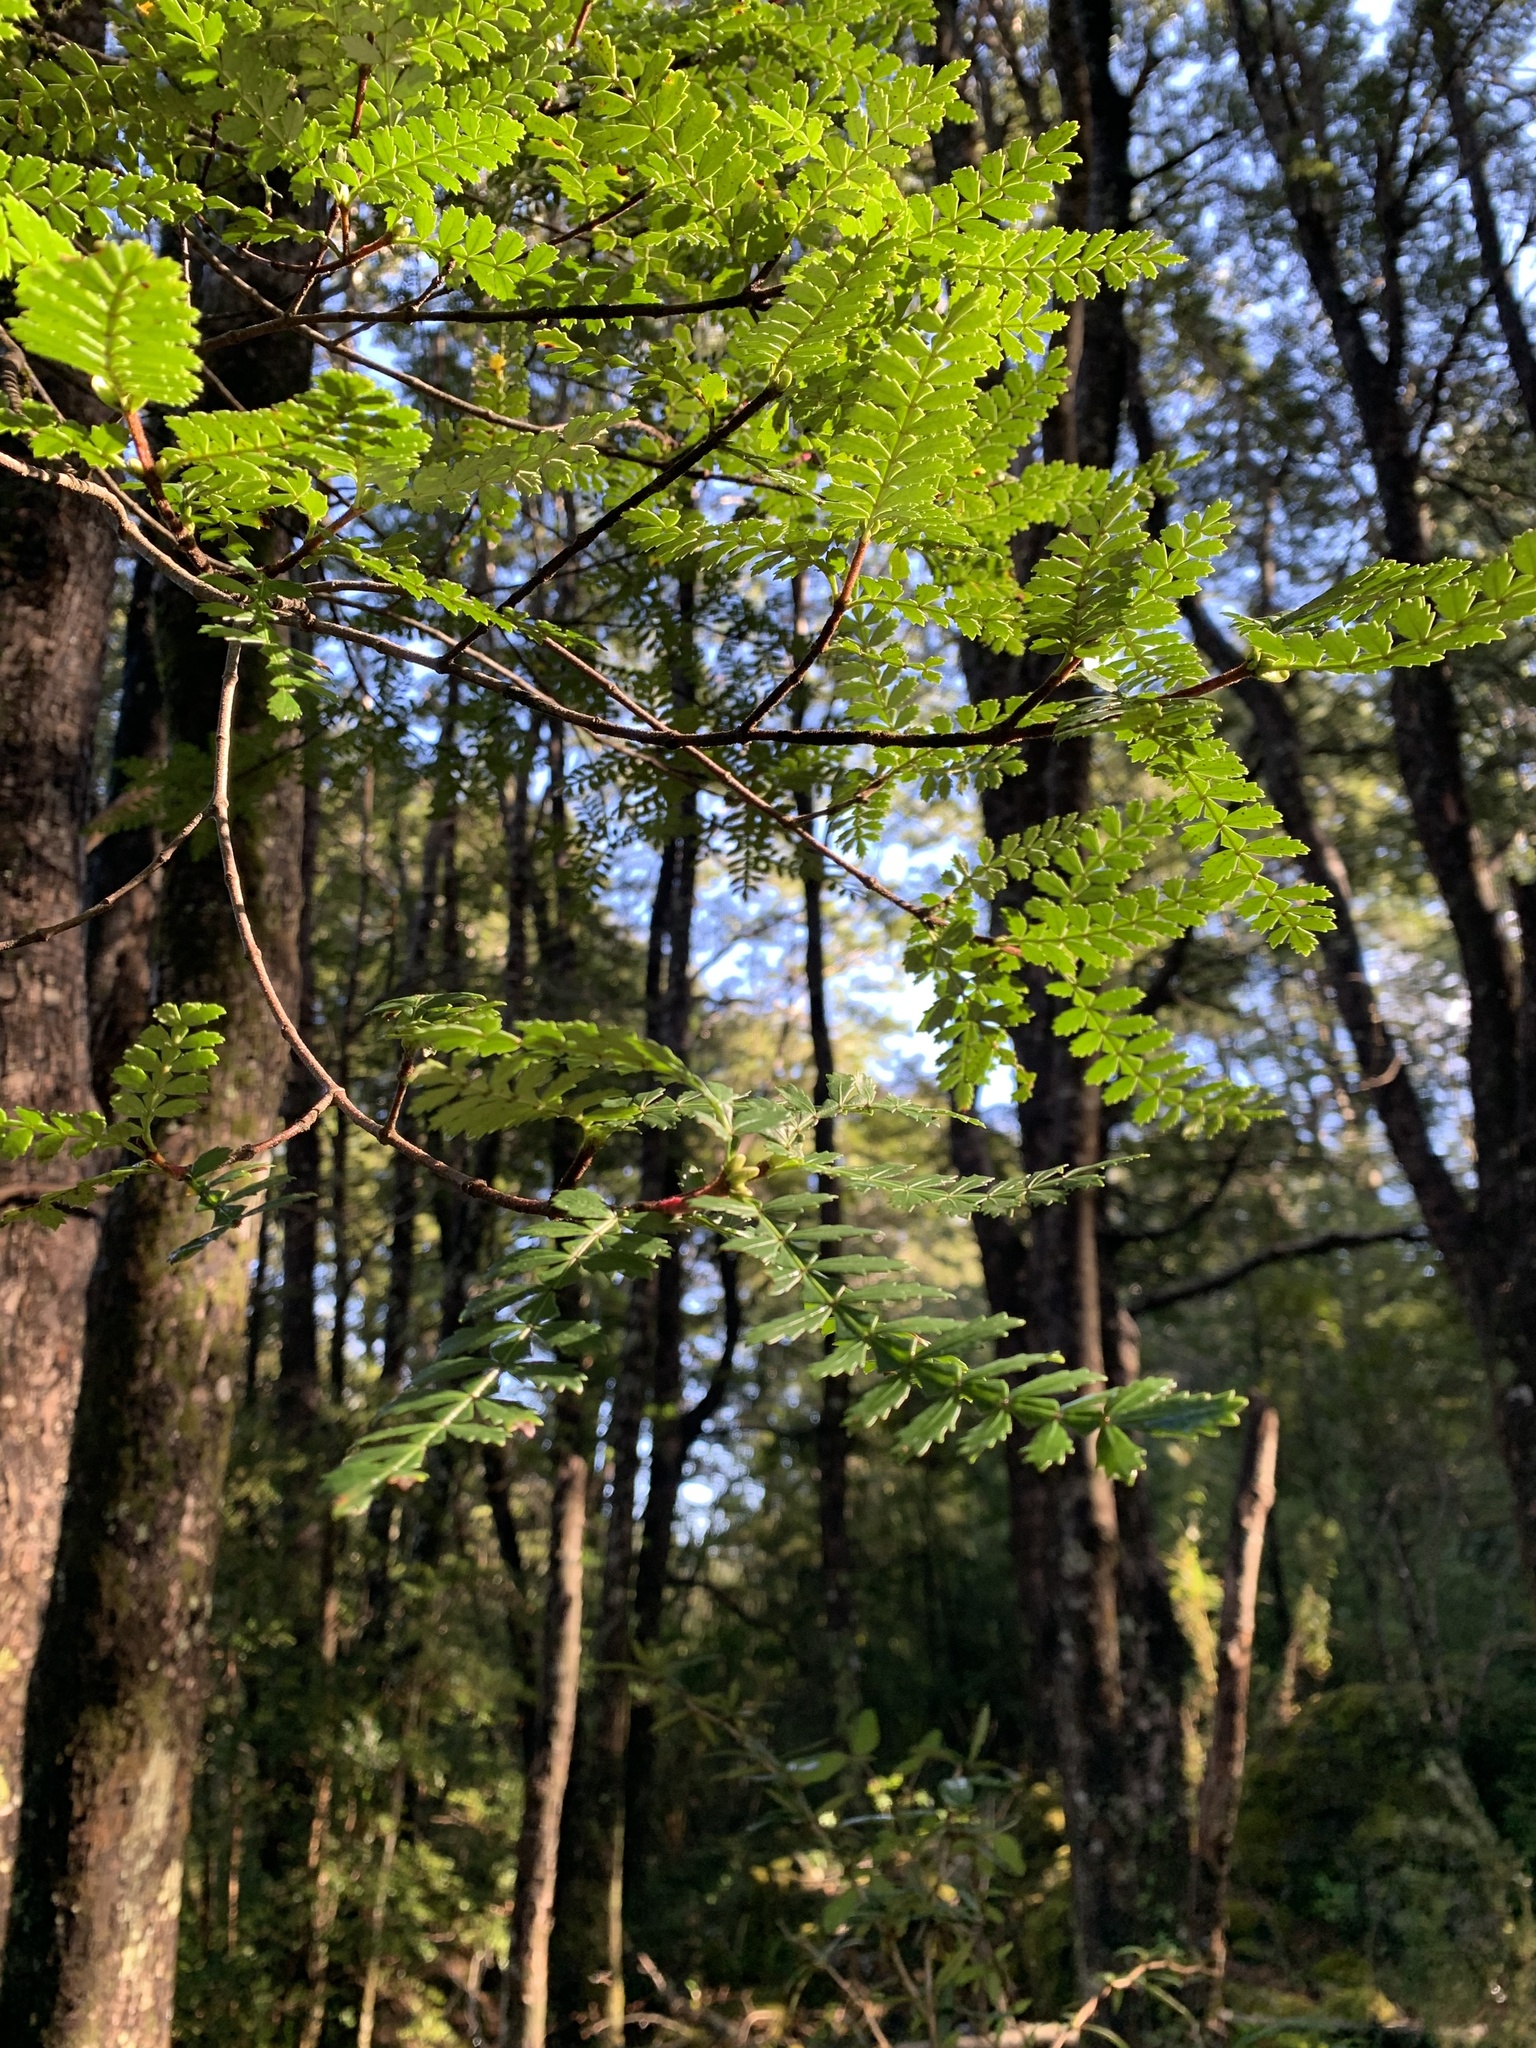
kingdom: Plantae
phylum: Tracheophyta
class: Magnoliopsida
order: Oxalidales
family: Cunoniaceae
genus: Weinmannia
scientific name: Weinmannia trichosperma
